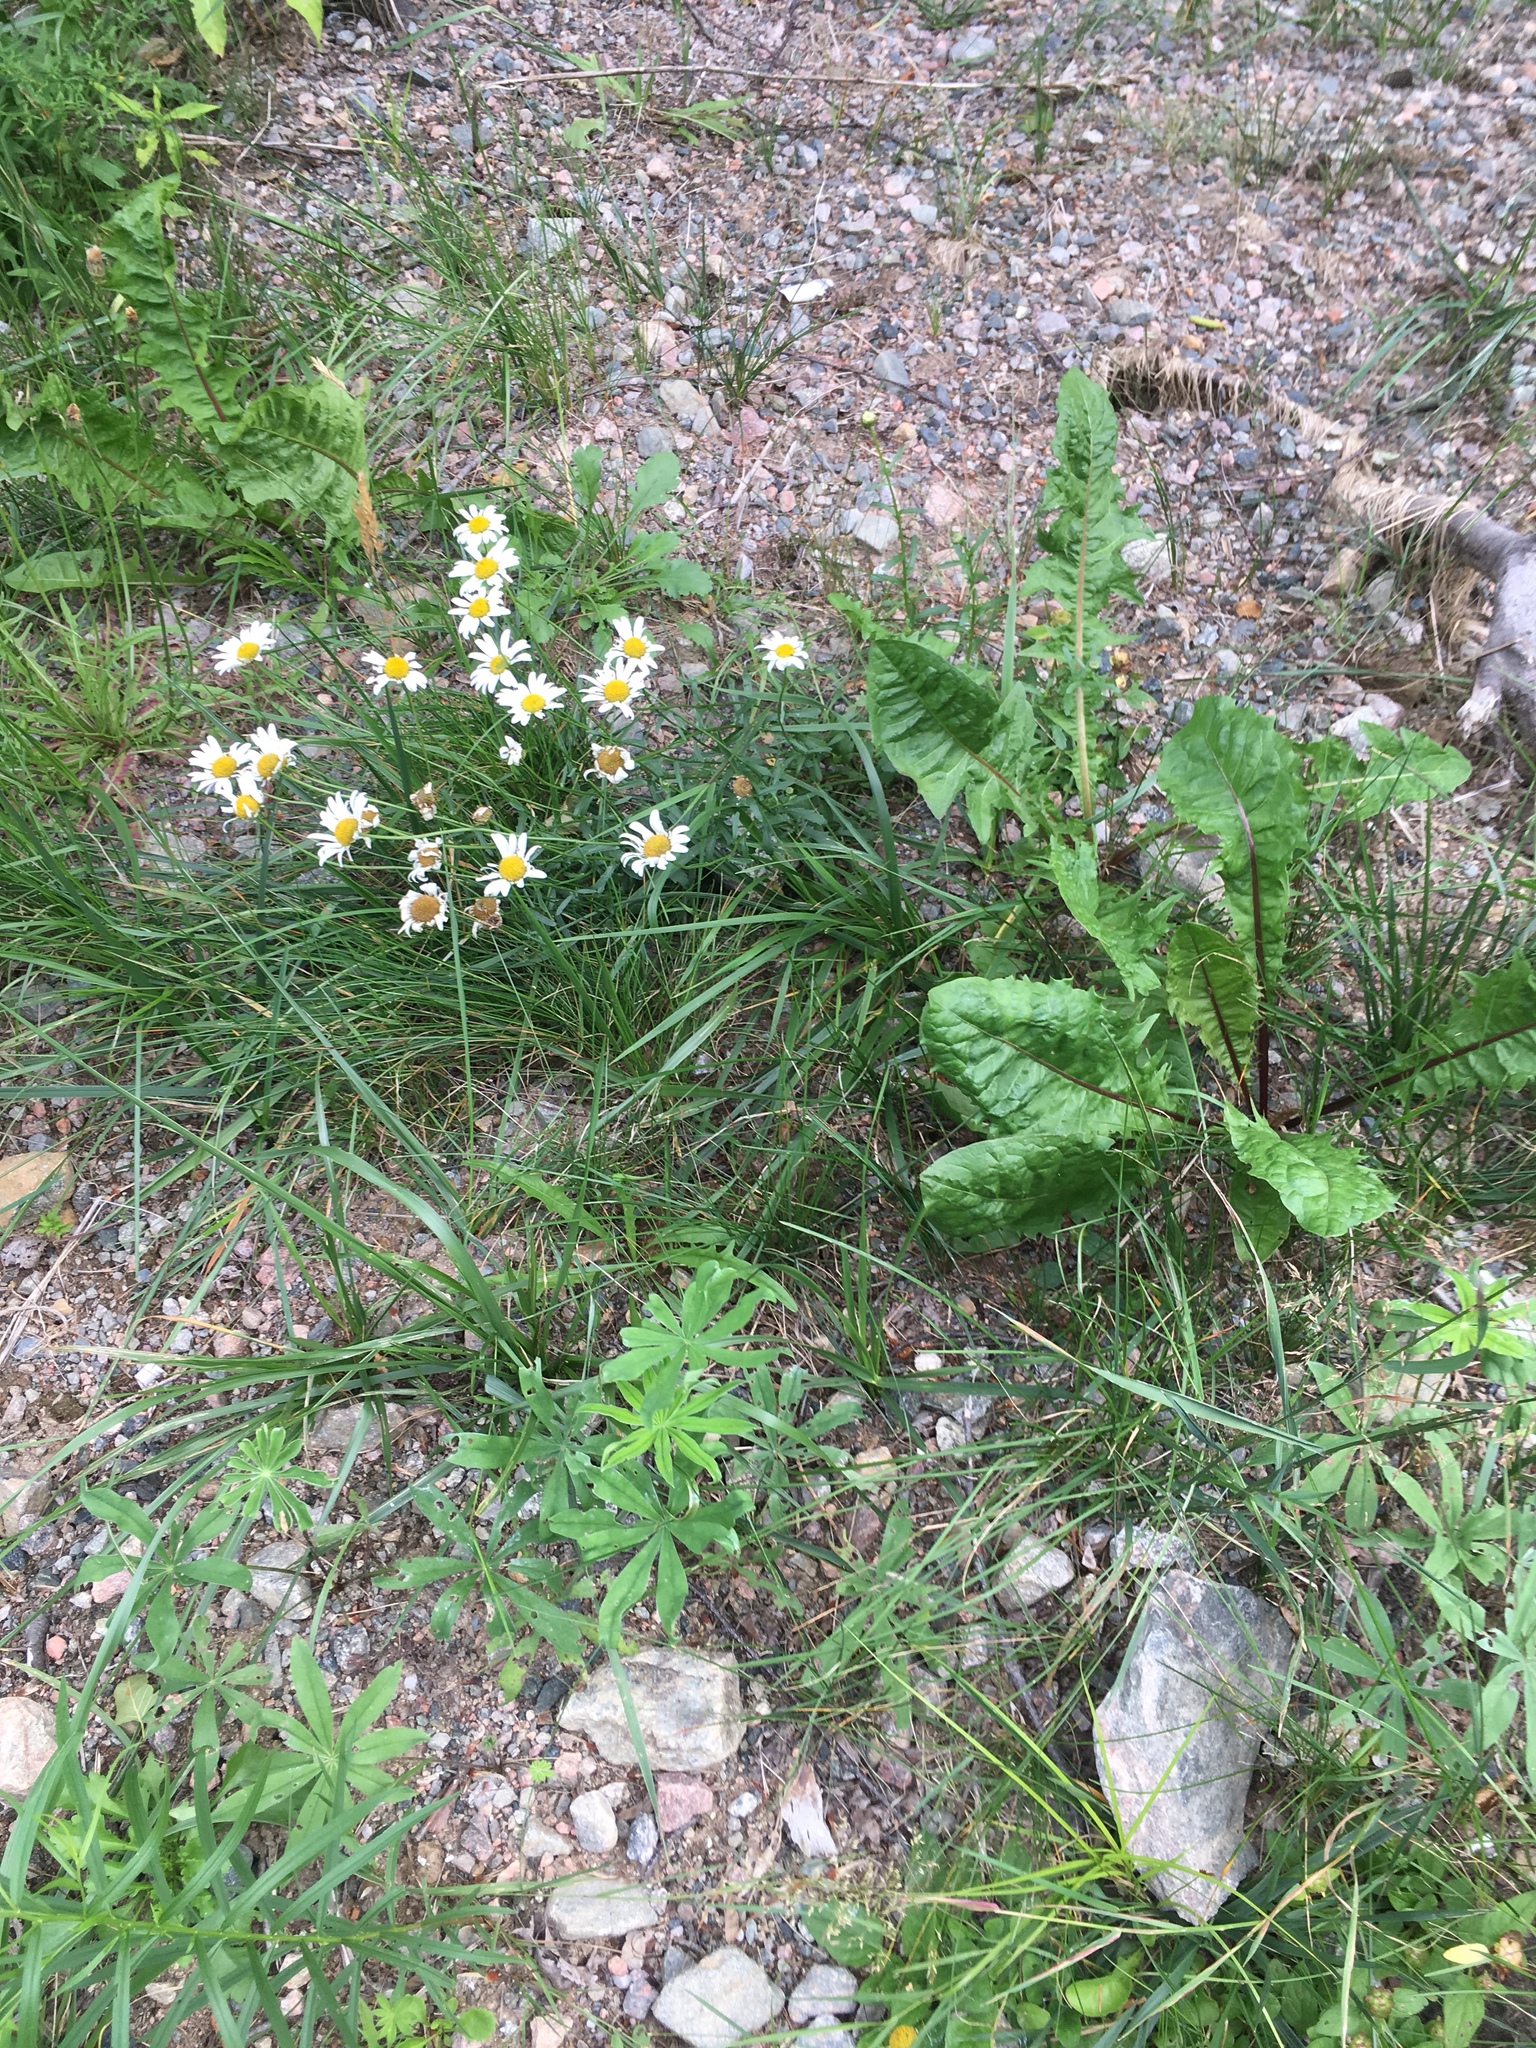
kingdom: Plantae
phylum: Tracheophyta
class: Magnoliopsida
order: Asterales
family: Asteraceae
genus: Leucanthemum
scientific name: Leucanthemum vulgare
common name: Oxeye daisy
